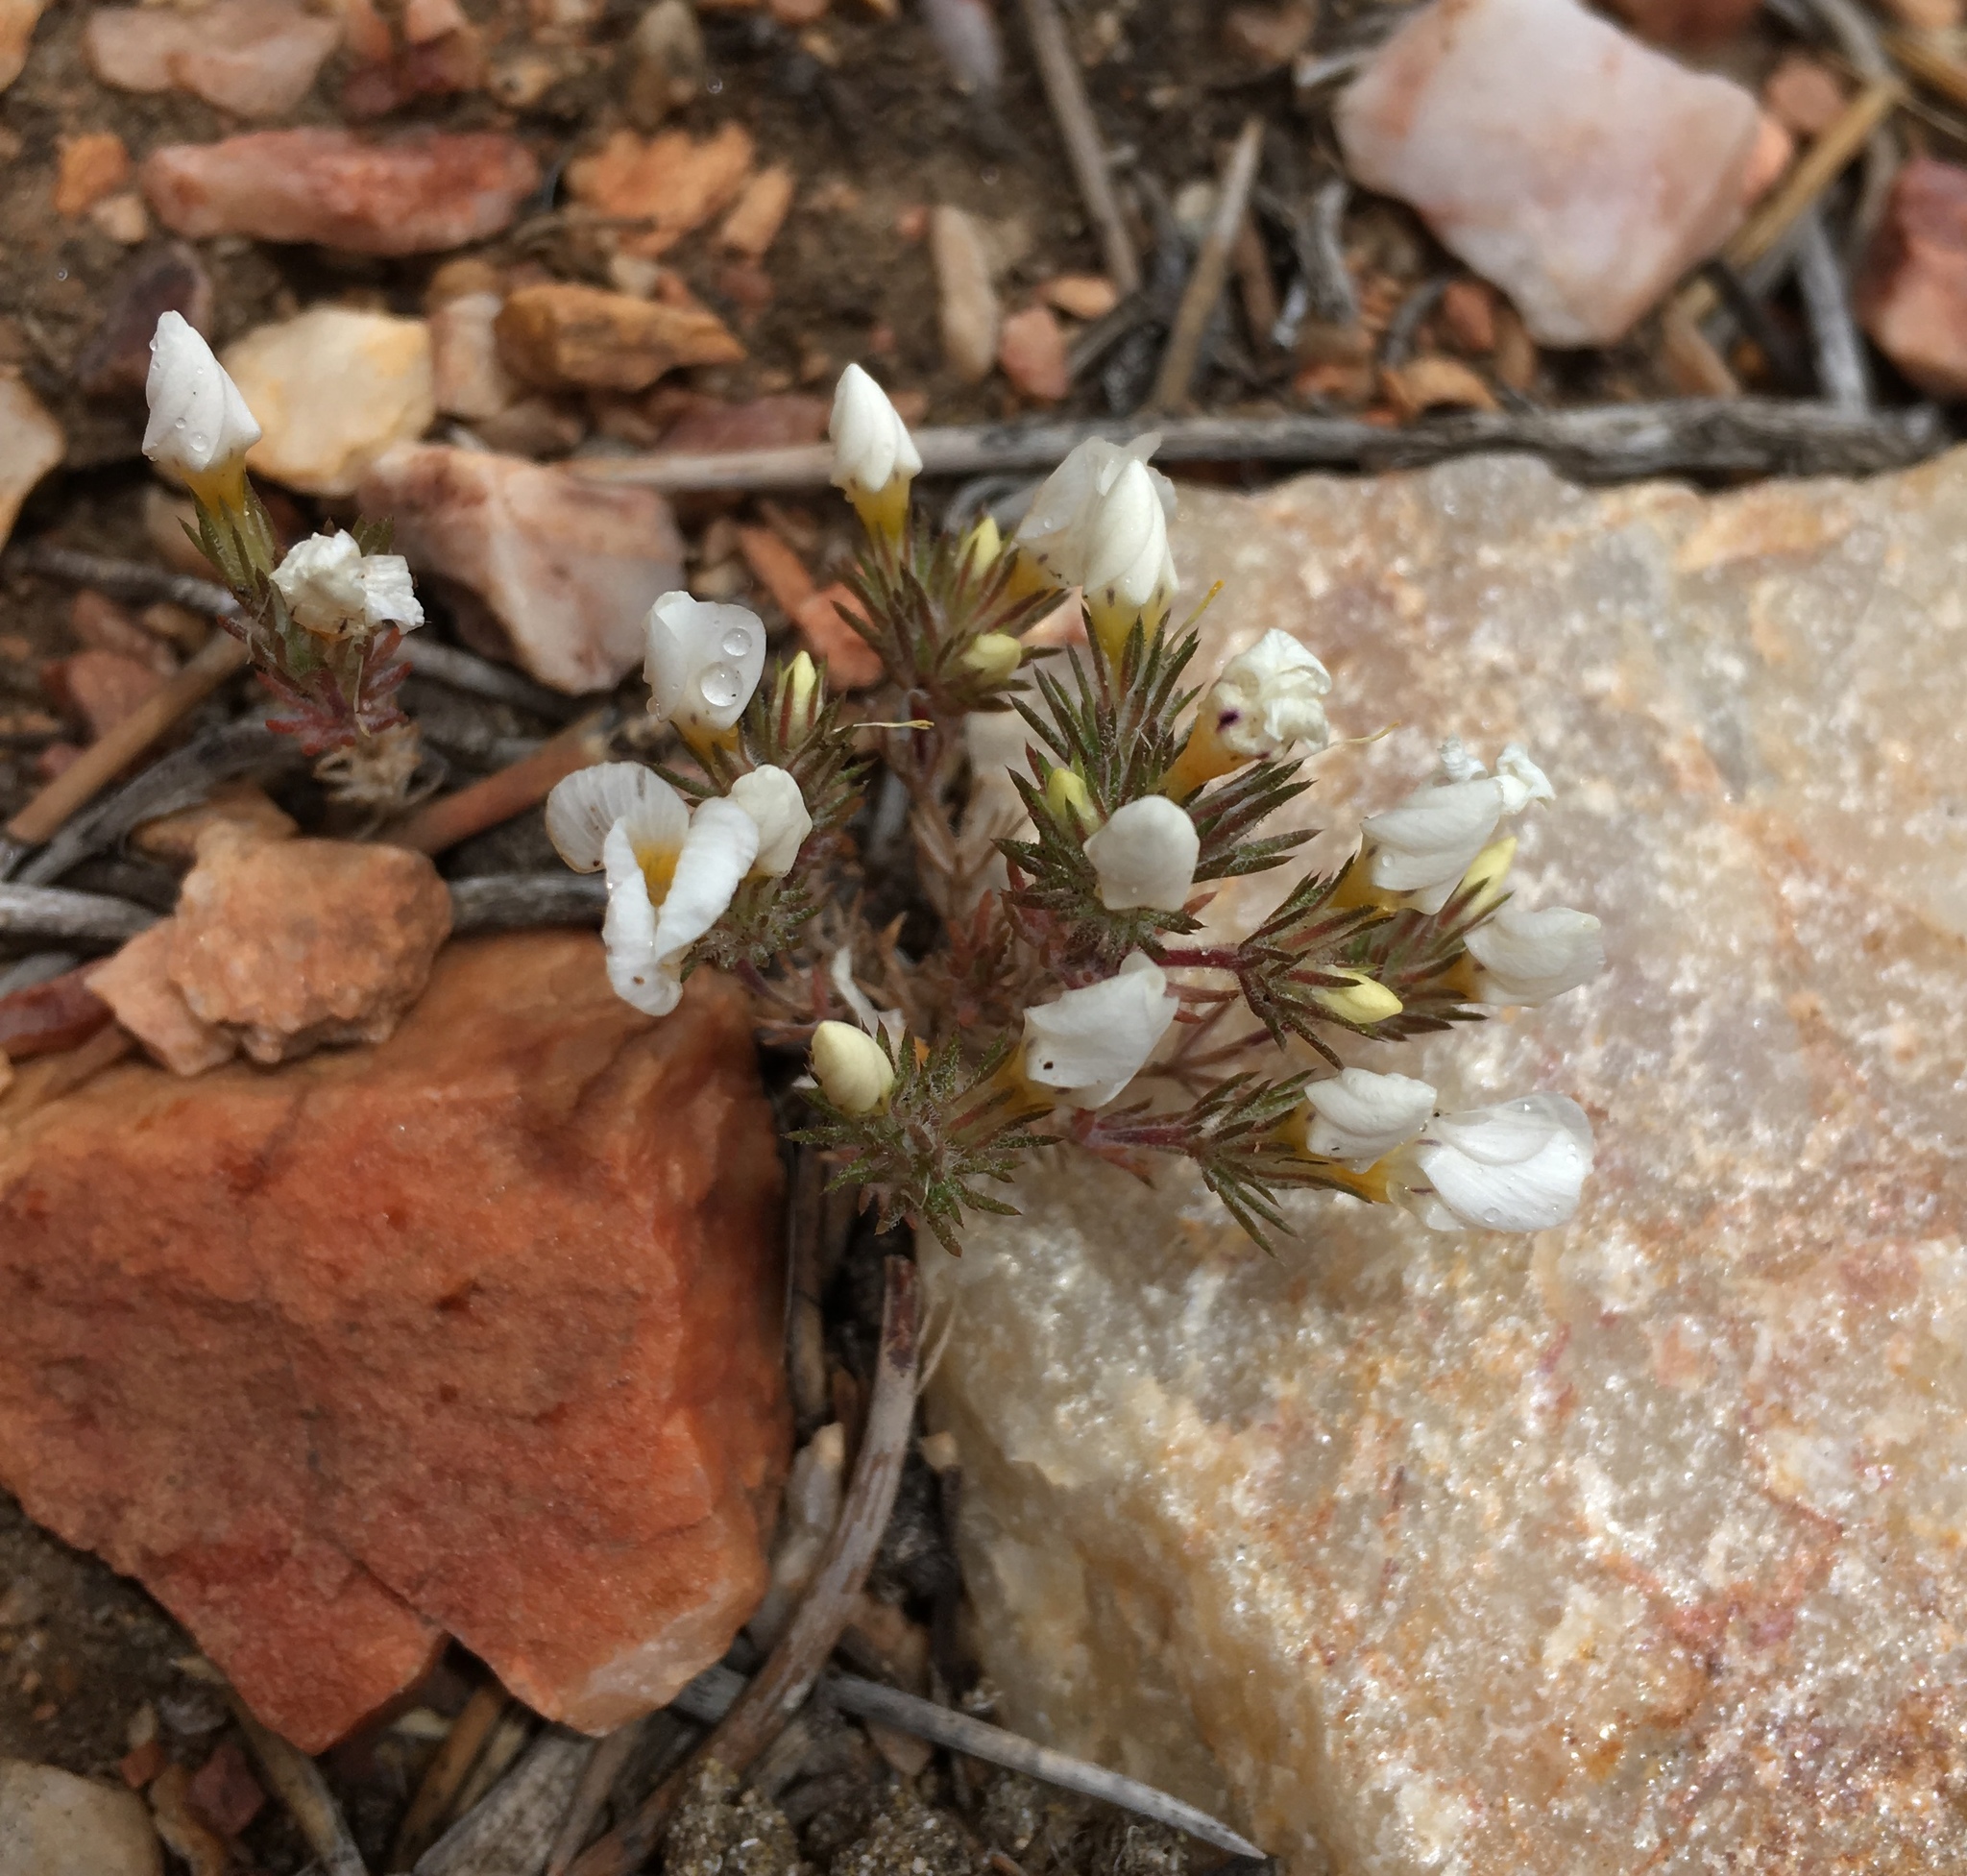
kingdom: Plantae
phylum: Tracheophyta
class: Magnoliopsida
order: Ericales
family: Polemoniaceae
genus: Linanthus
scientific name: Linanthus killipii
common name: Baldwin lake linanthus
